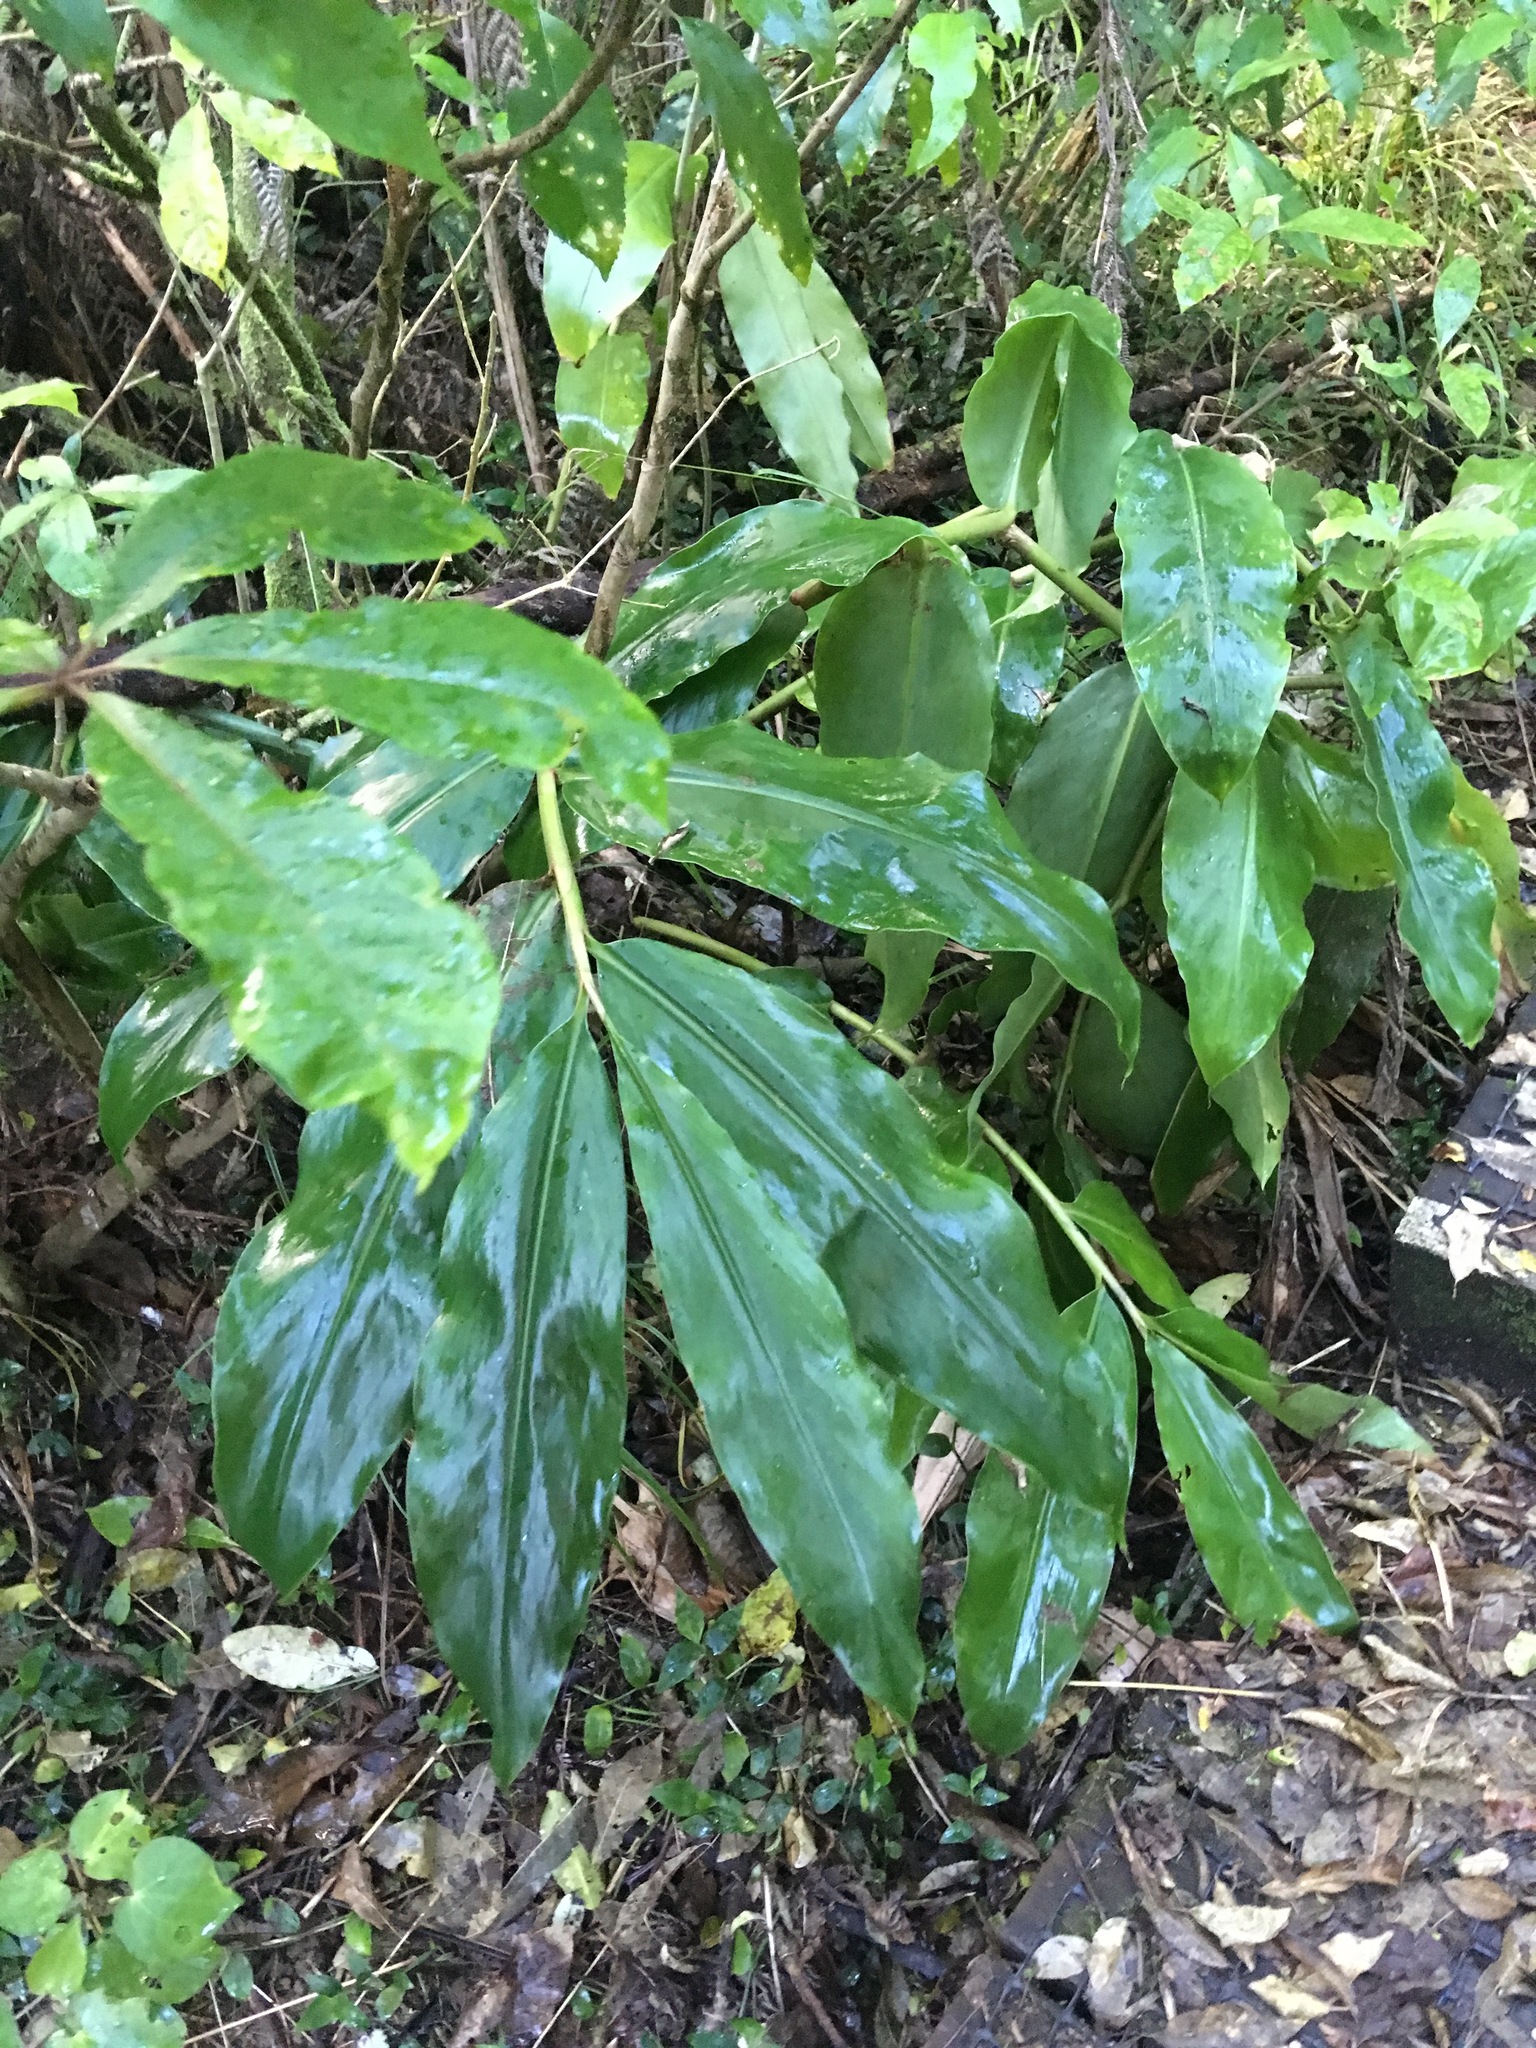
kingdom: Plantae
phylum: Tracheophyta
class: Liliopsida
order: Zingiberales
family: Zingiberaceae
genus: Hedychium
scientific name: Hedychium gardnerianum
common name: Himalayan ginger
